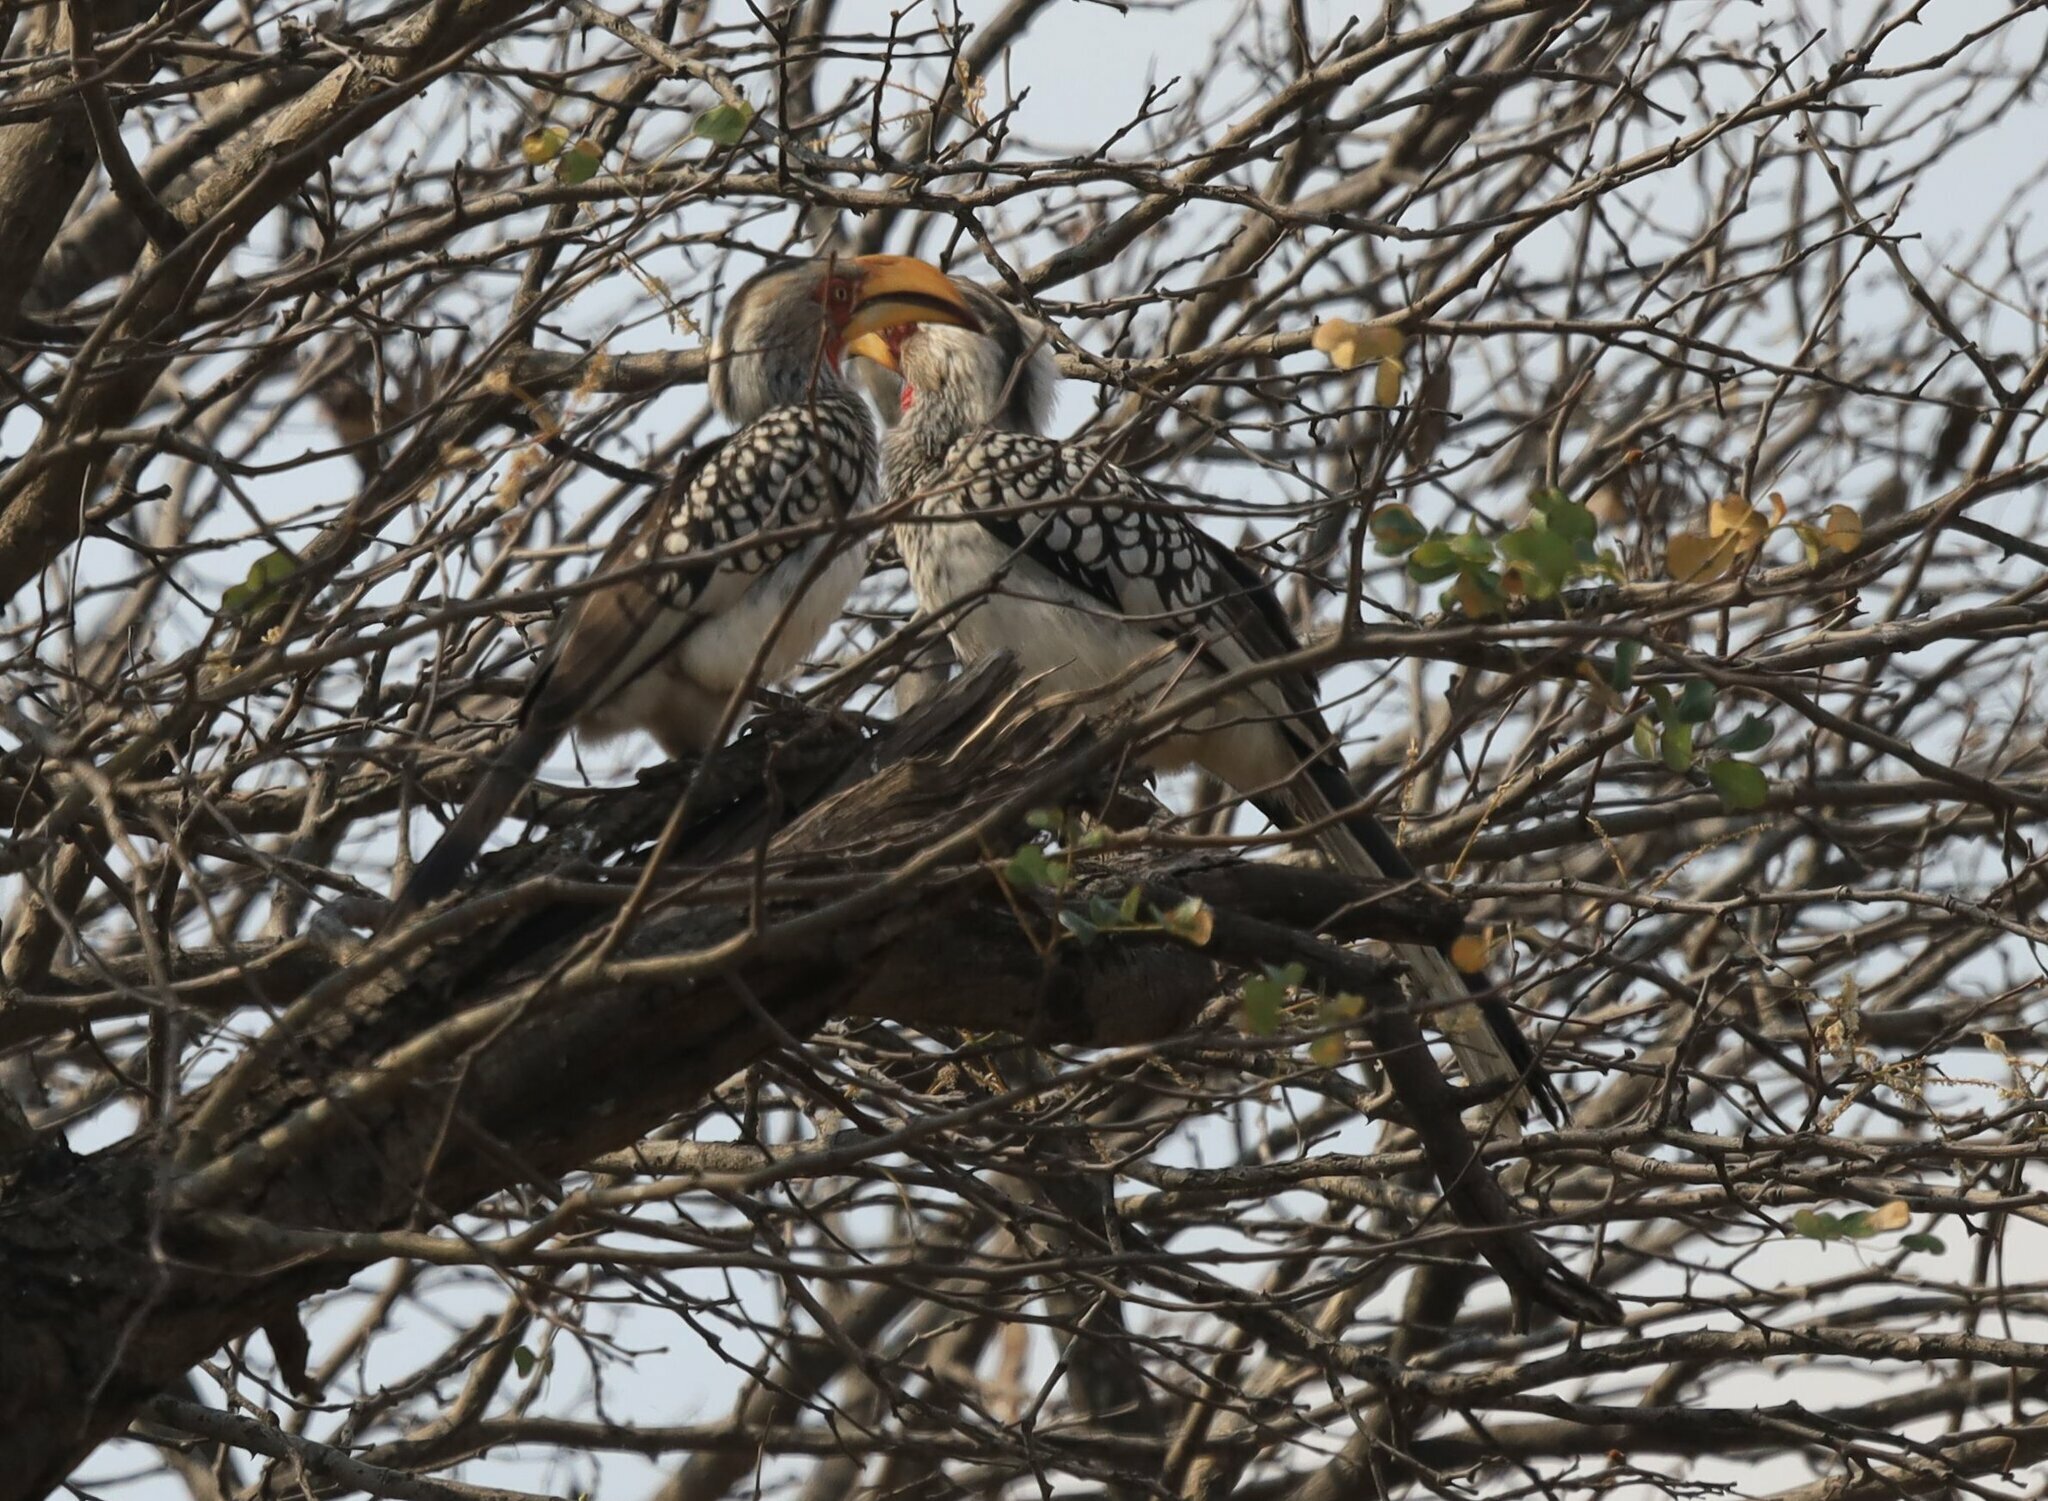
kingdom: Animalia
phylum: Chordata
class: Aves
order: Bucerotiformes
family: Bucerotidae
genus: Tockus
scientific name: Tockus leucomelas
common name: Southern yellow-billed hornbill
